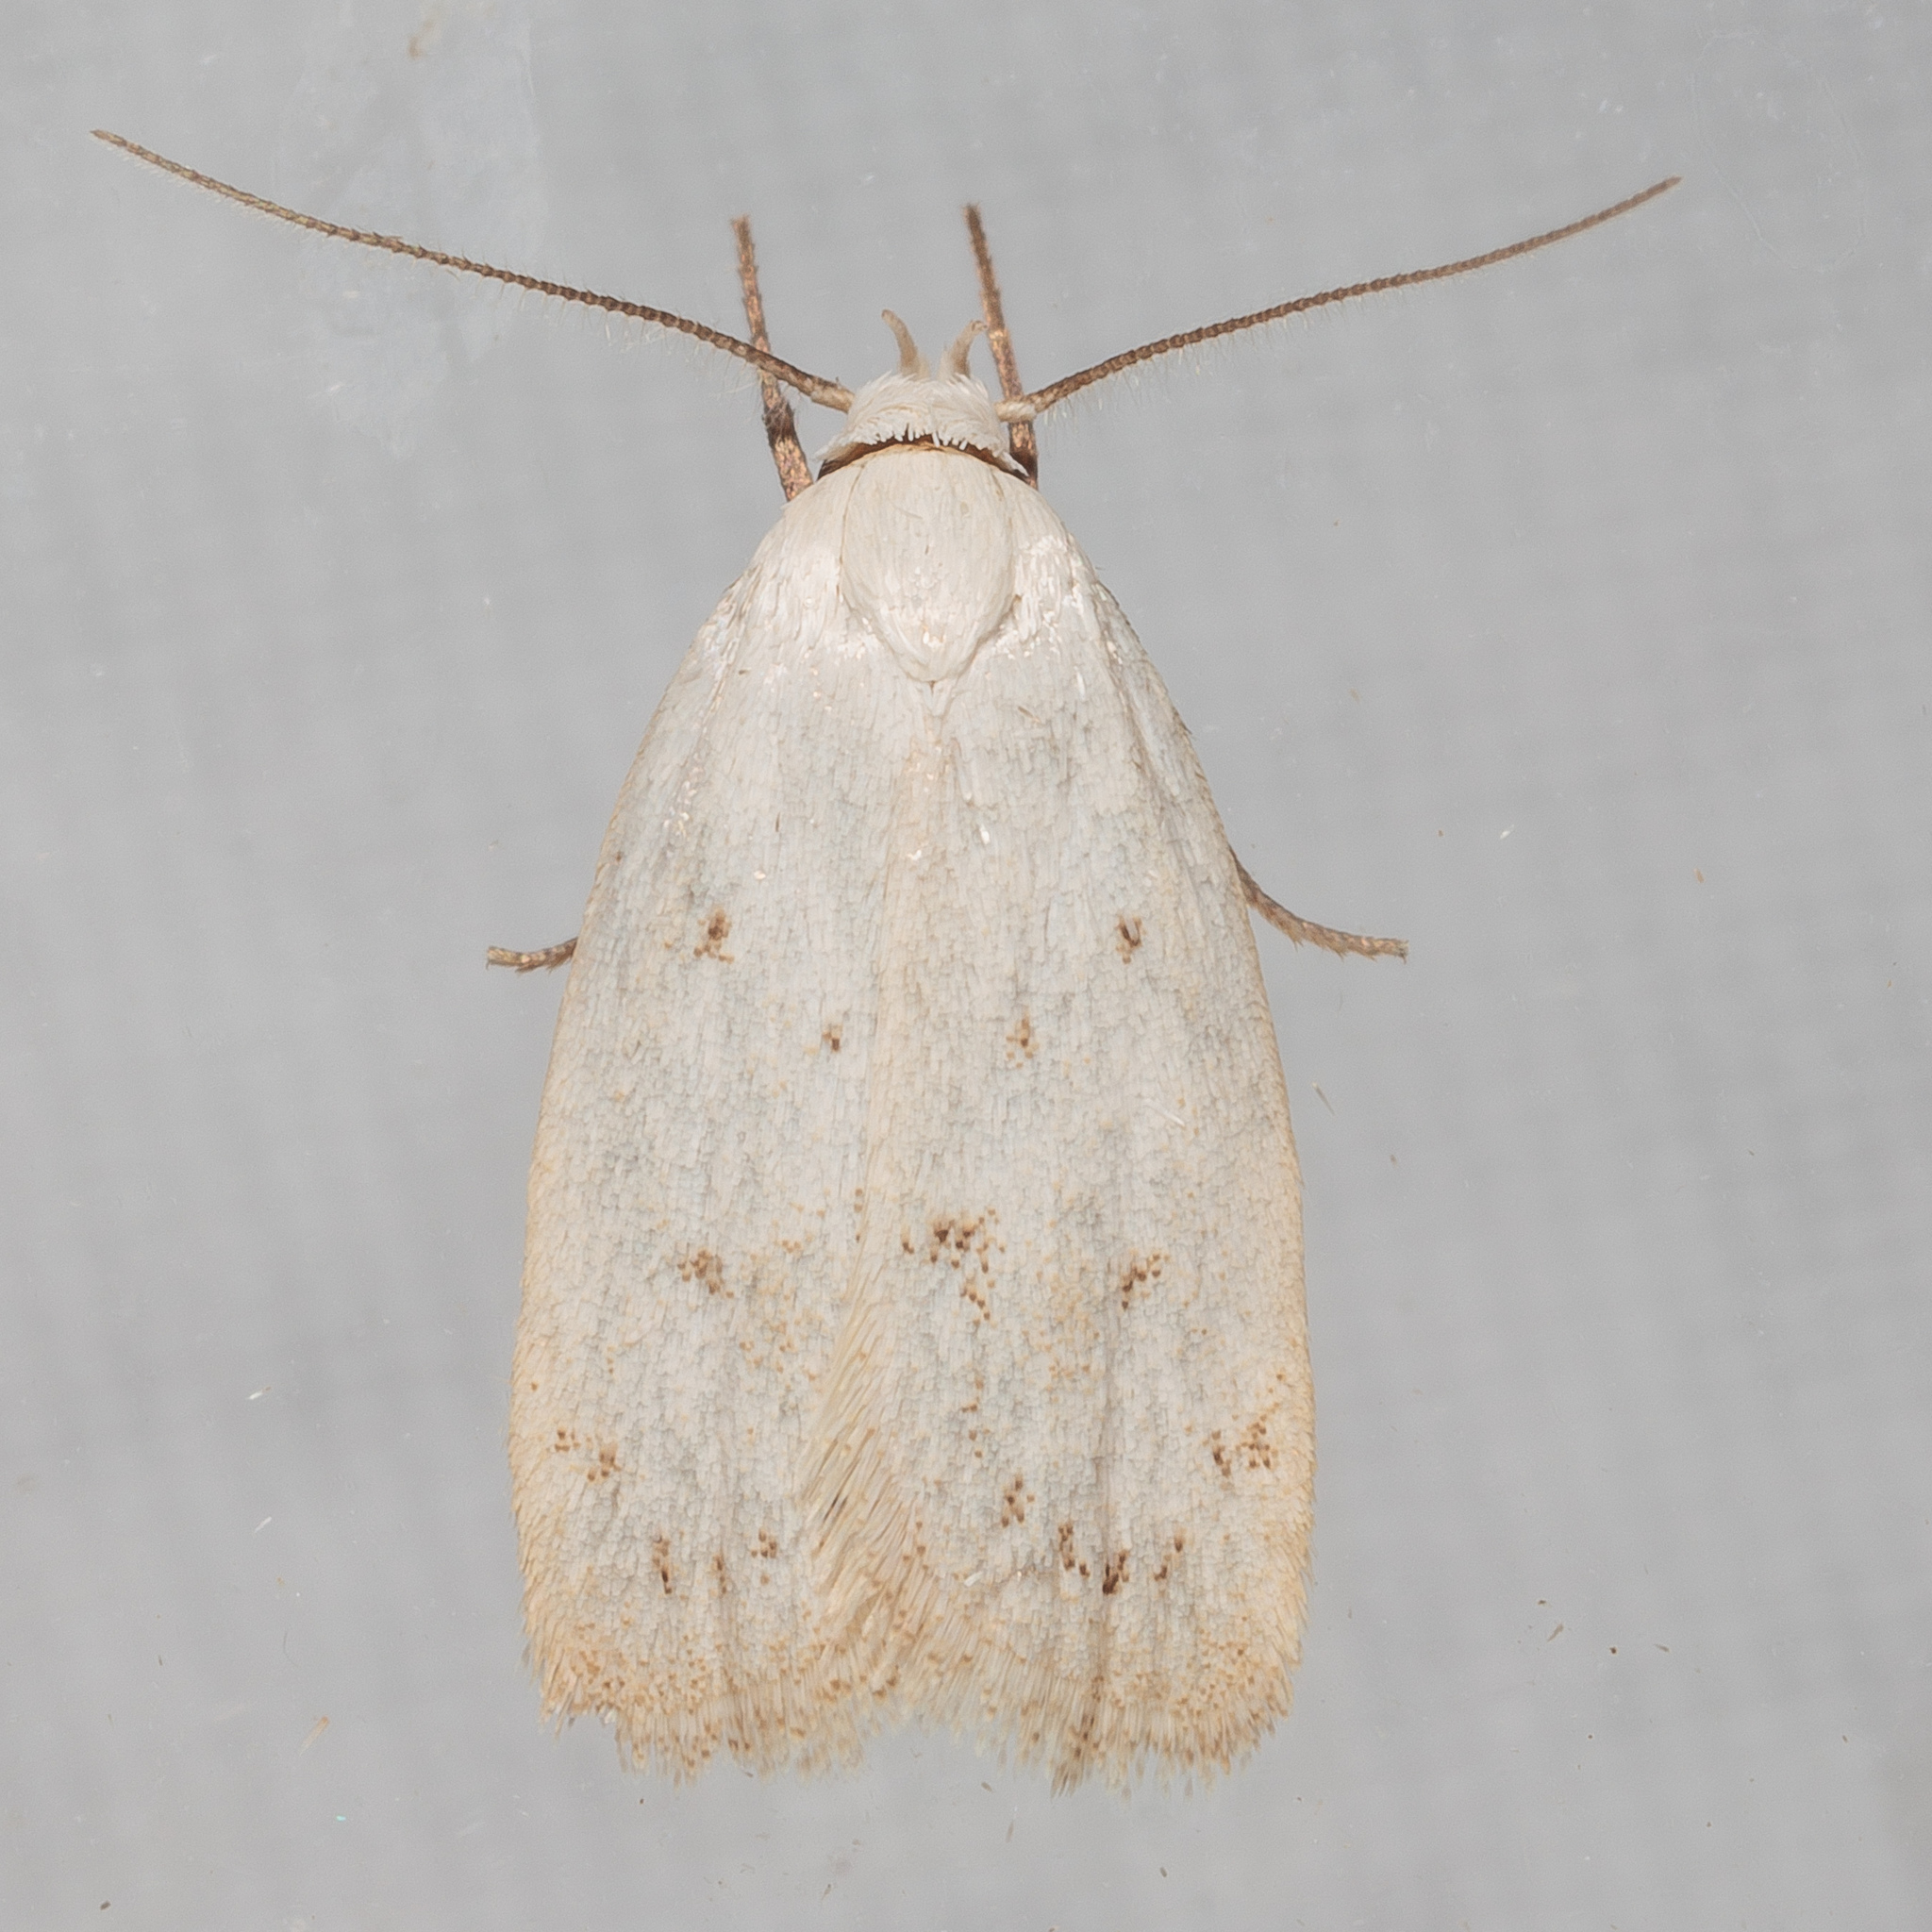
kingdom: Animalia
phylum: Arthropoda
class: Insecta
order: Lepidoptera
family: Oecophoridae
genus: Inga
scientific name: Inga cretacea
